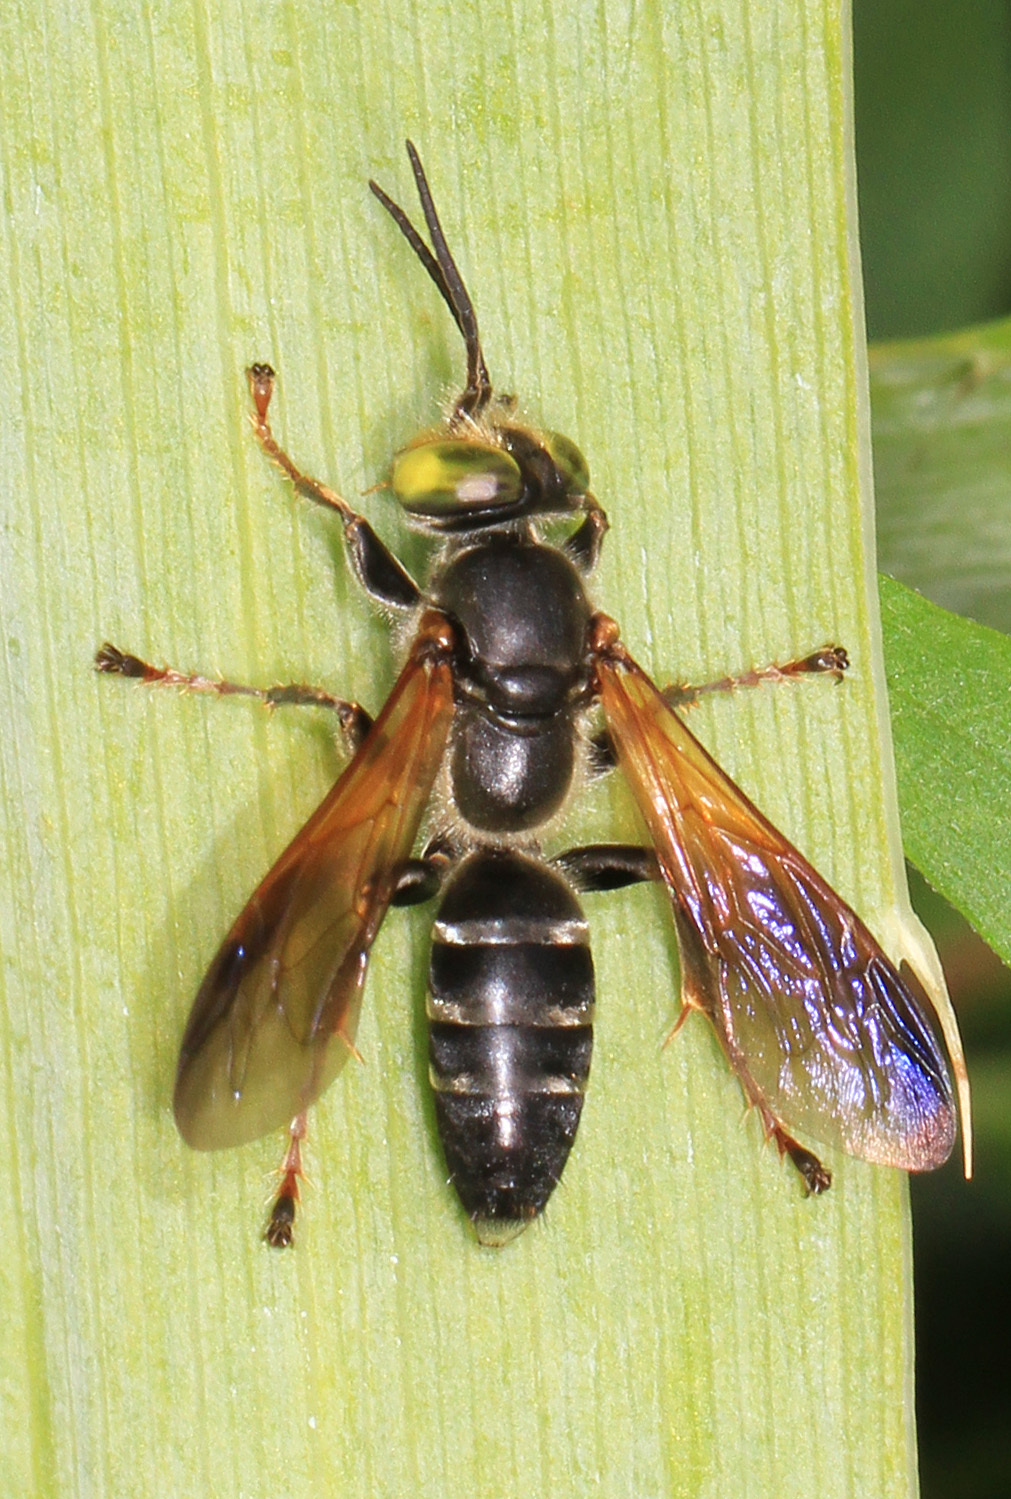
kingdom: Animalia
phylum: Arthropoda
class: Insecta
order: Hymenoptera
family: Crabronidae
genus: Tachytes
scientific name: Tachytes guatemalensis
